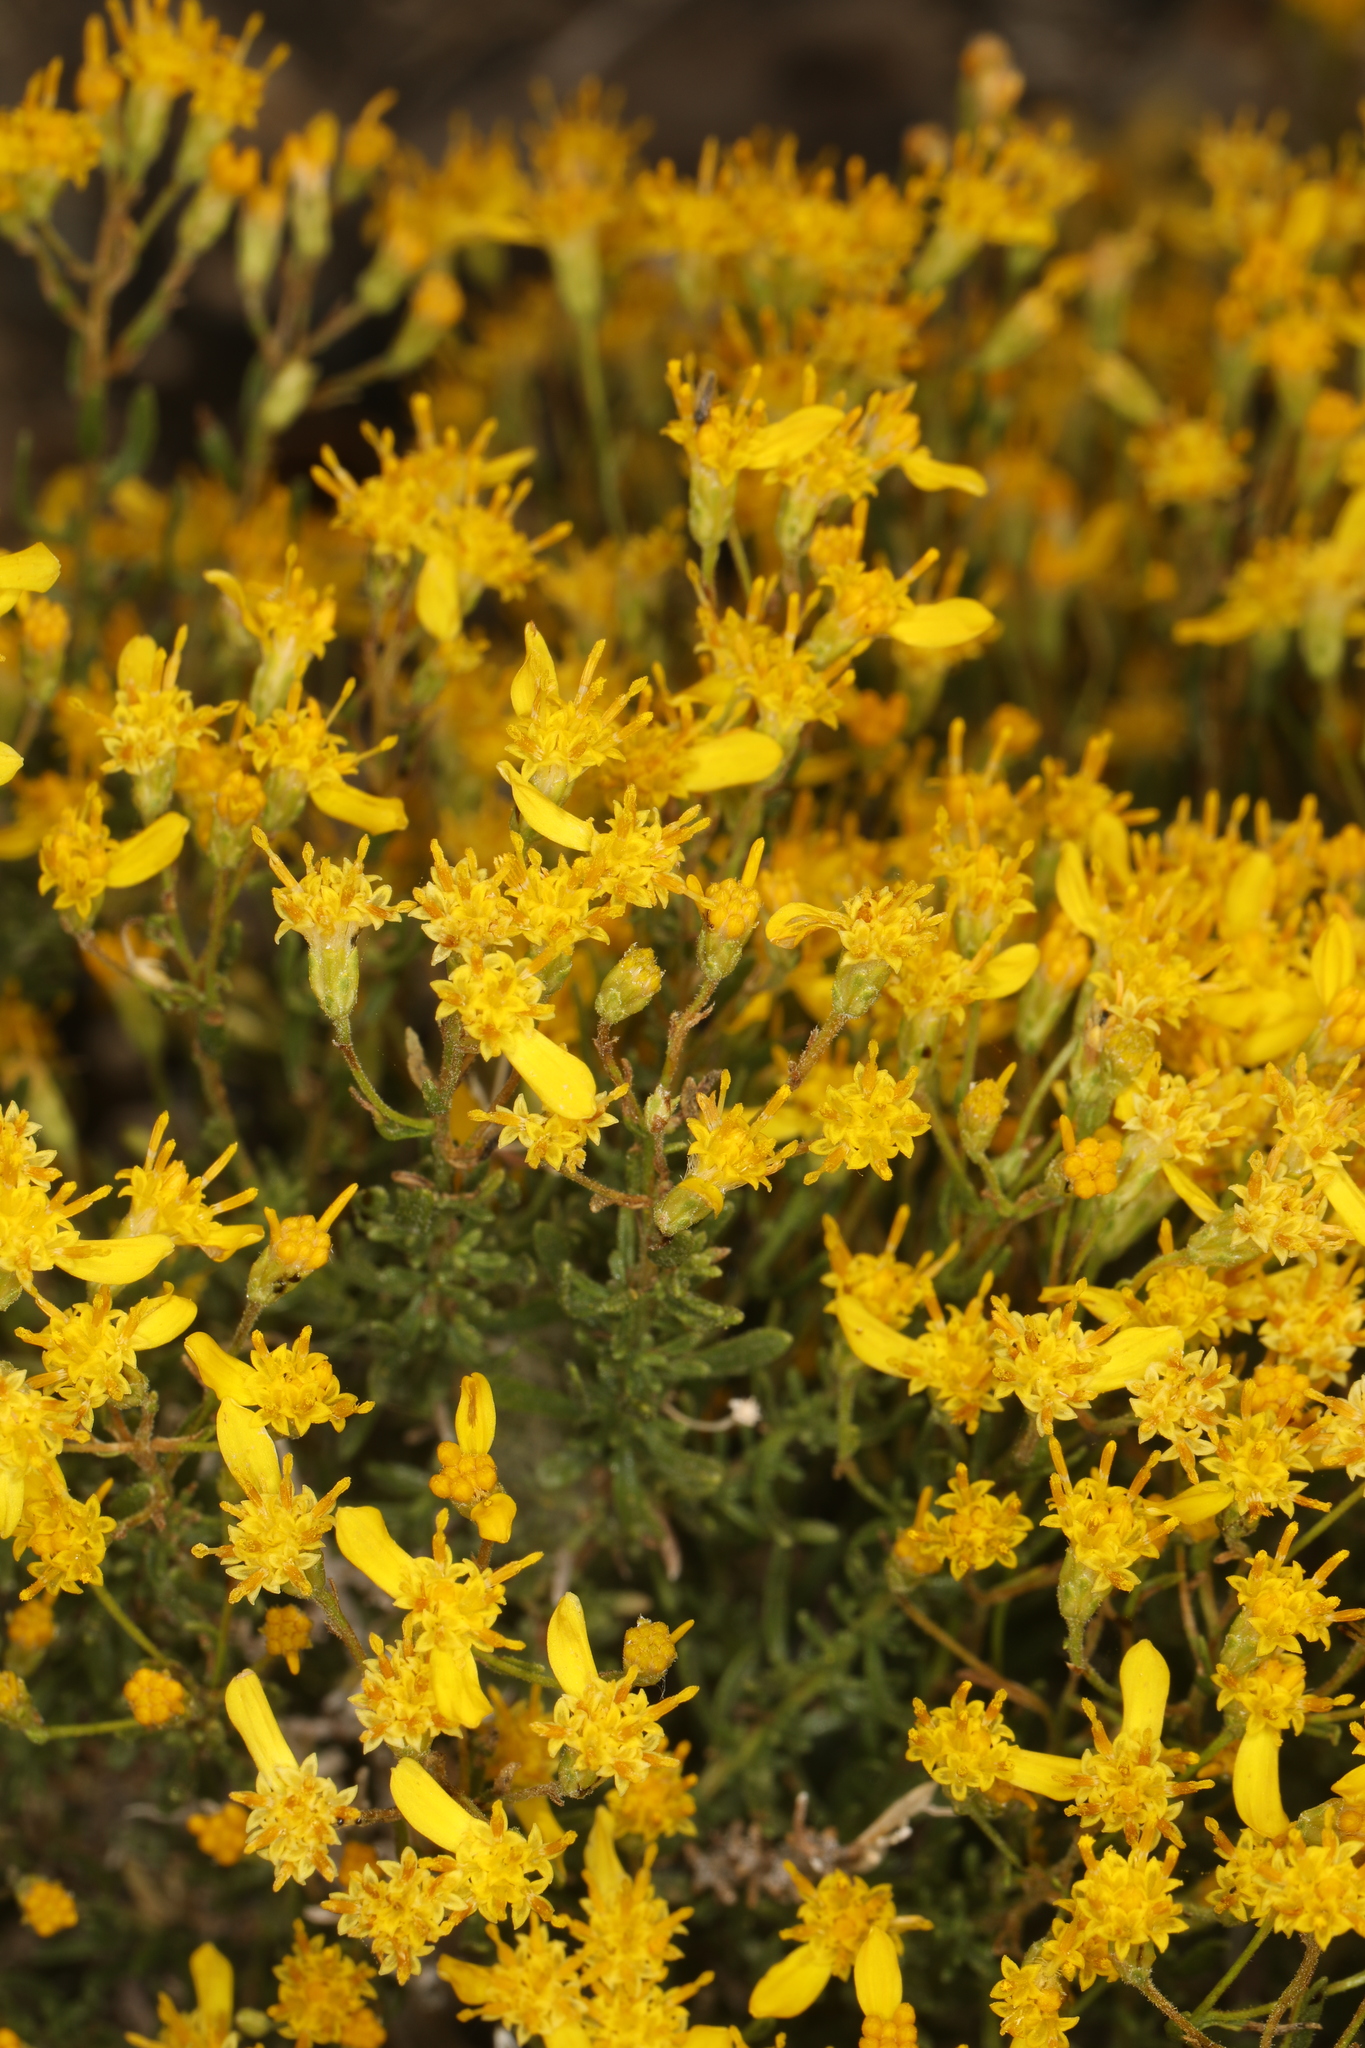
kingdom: Plantae
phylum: Tracheophyta
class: Magnoliopsida
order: Asterales
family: Asteraceae
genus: Ericameria
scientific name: Ericameria cooperi
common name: Cooper's goldenbush
